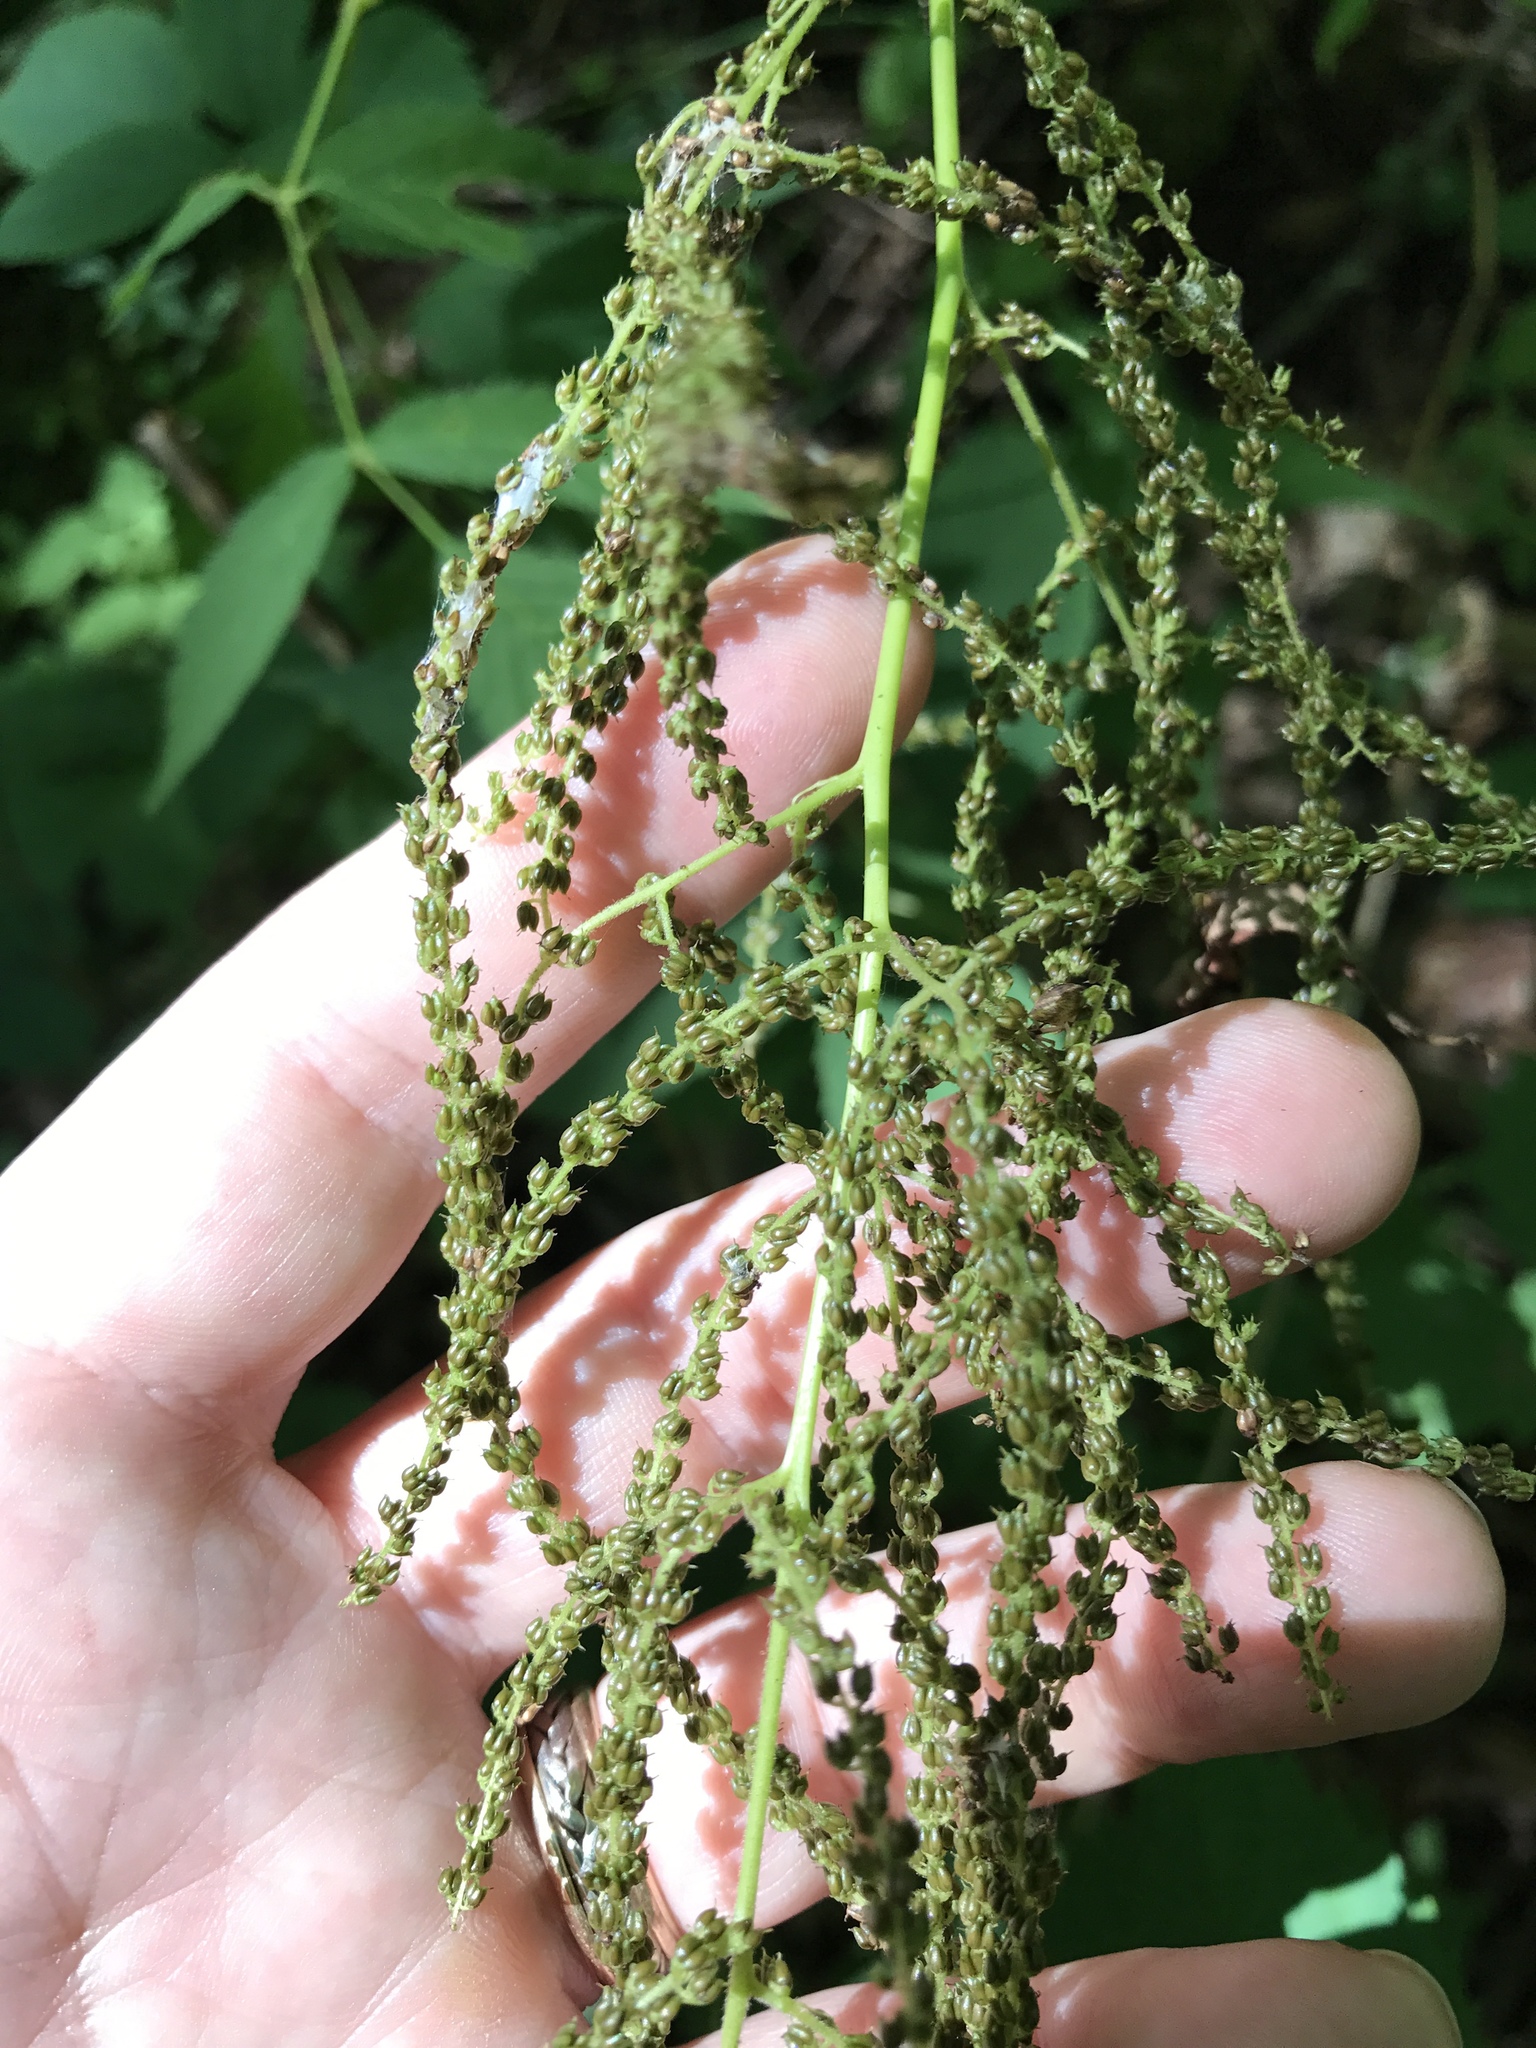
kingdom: Plantae
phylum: Tracheophyta
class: Magnoliopsida
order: Rosales
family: Rosaceae
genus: Aruncus
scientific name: Aruncus dioicus
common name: Buck's-beard
